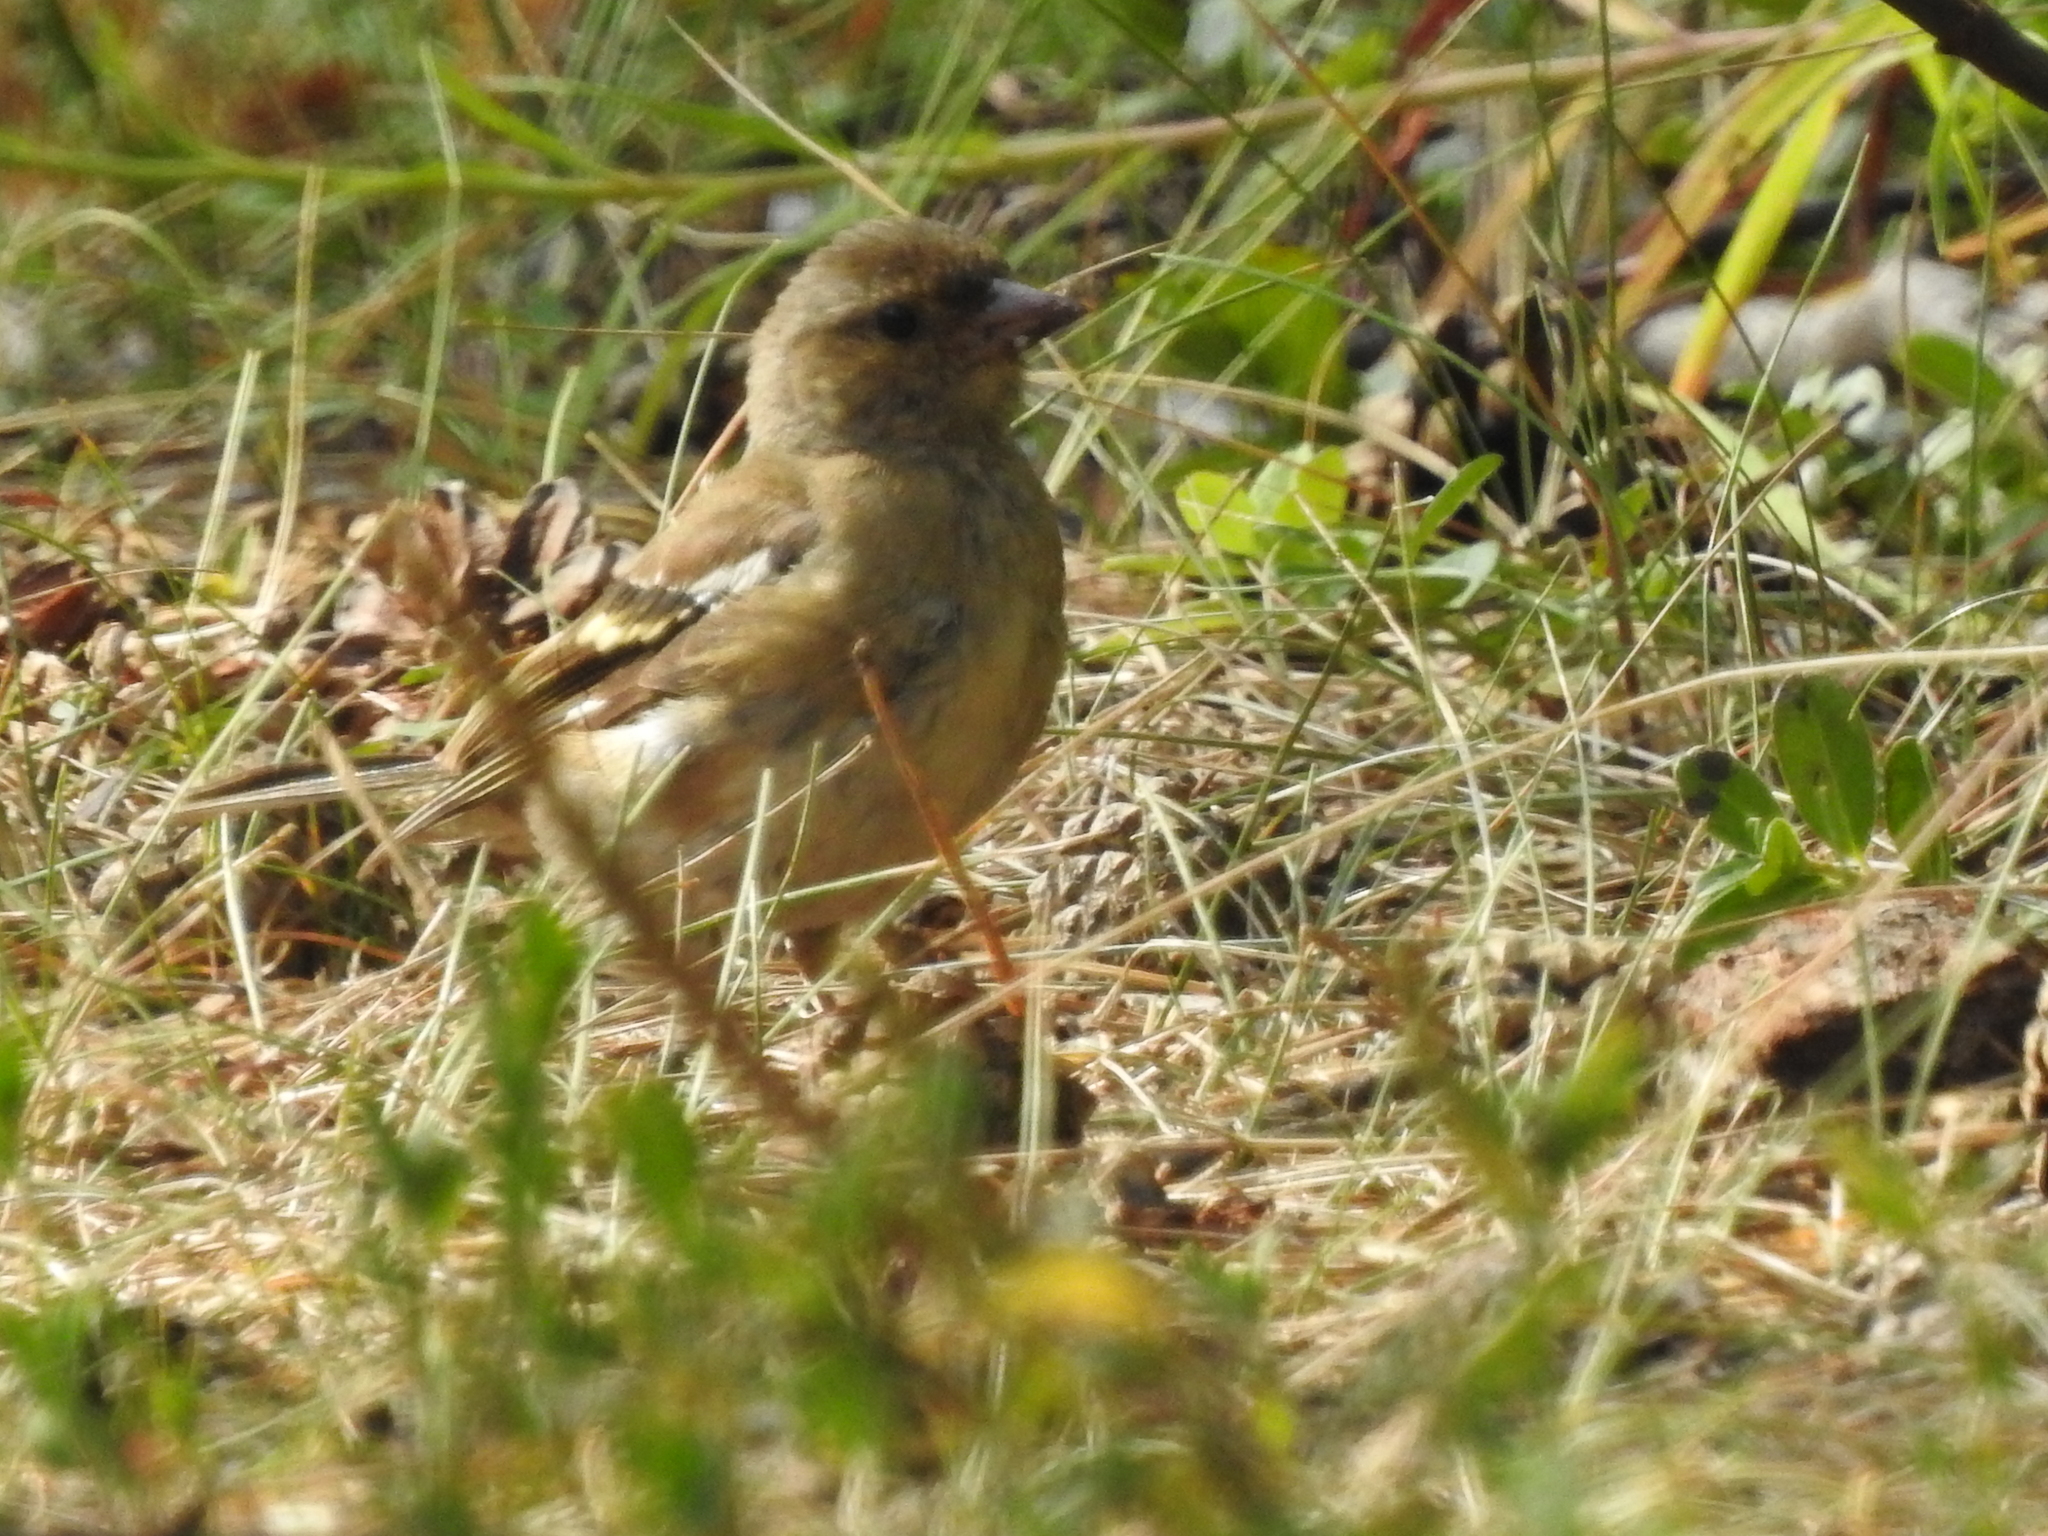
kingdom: Animalia
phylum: Chordata
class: Aves
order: Passeriformes
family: Fringillidae
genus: Fringilla
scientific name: Fringilla coelebs
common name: Common chaffinch
